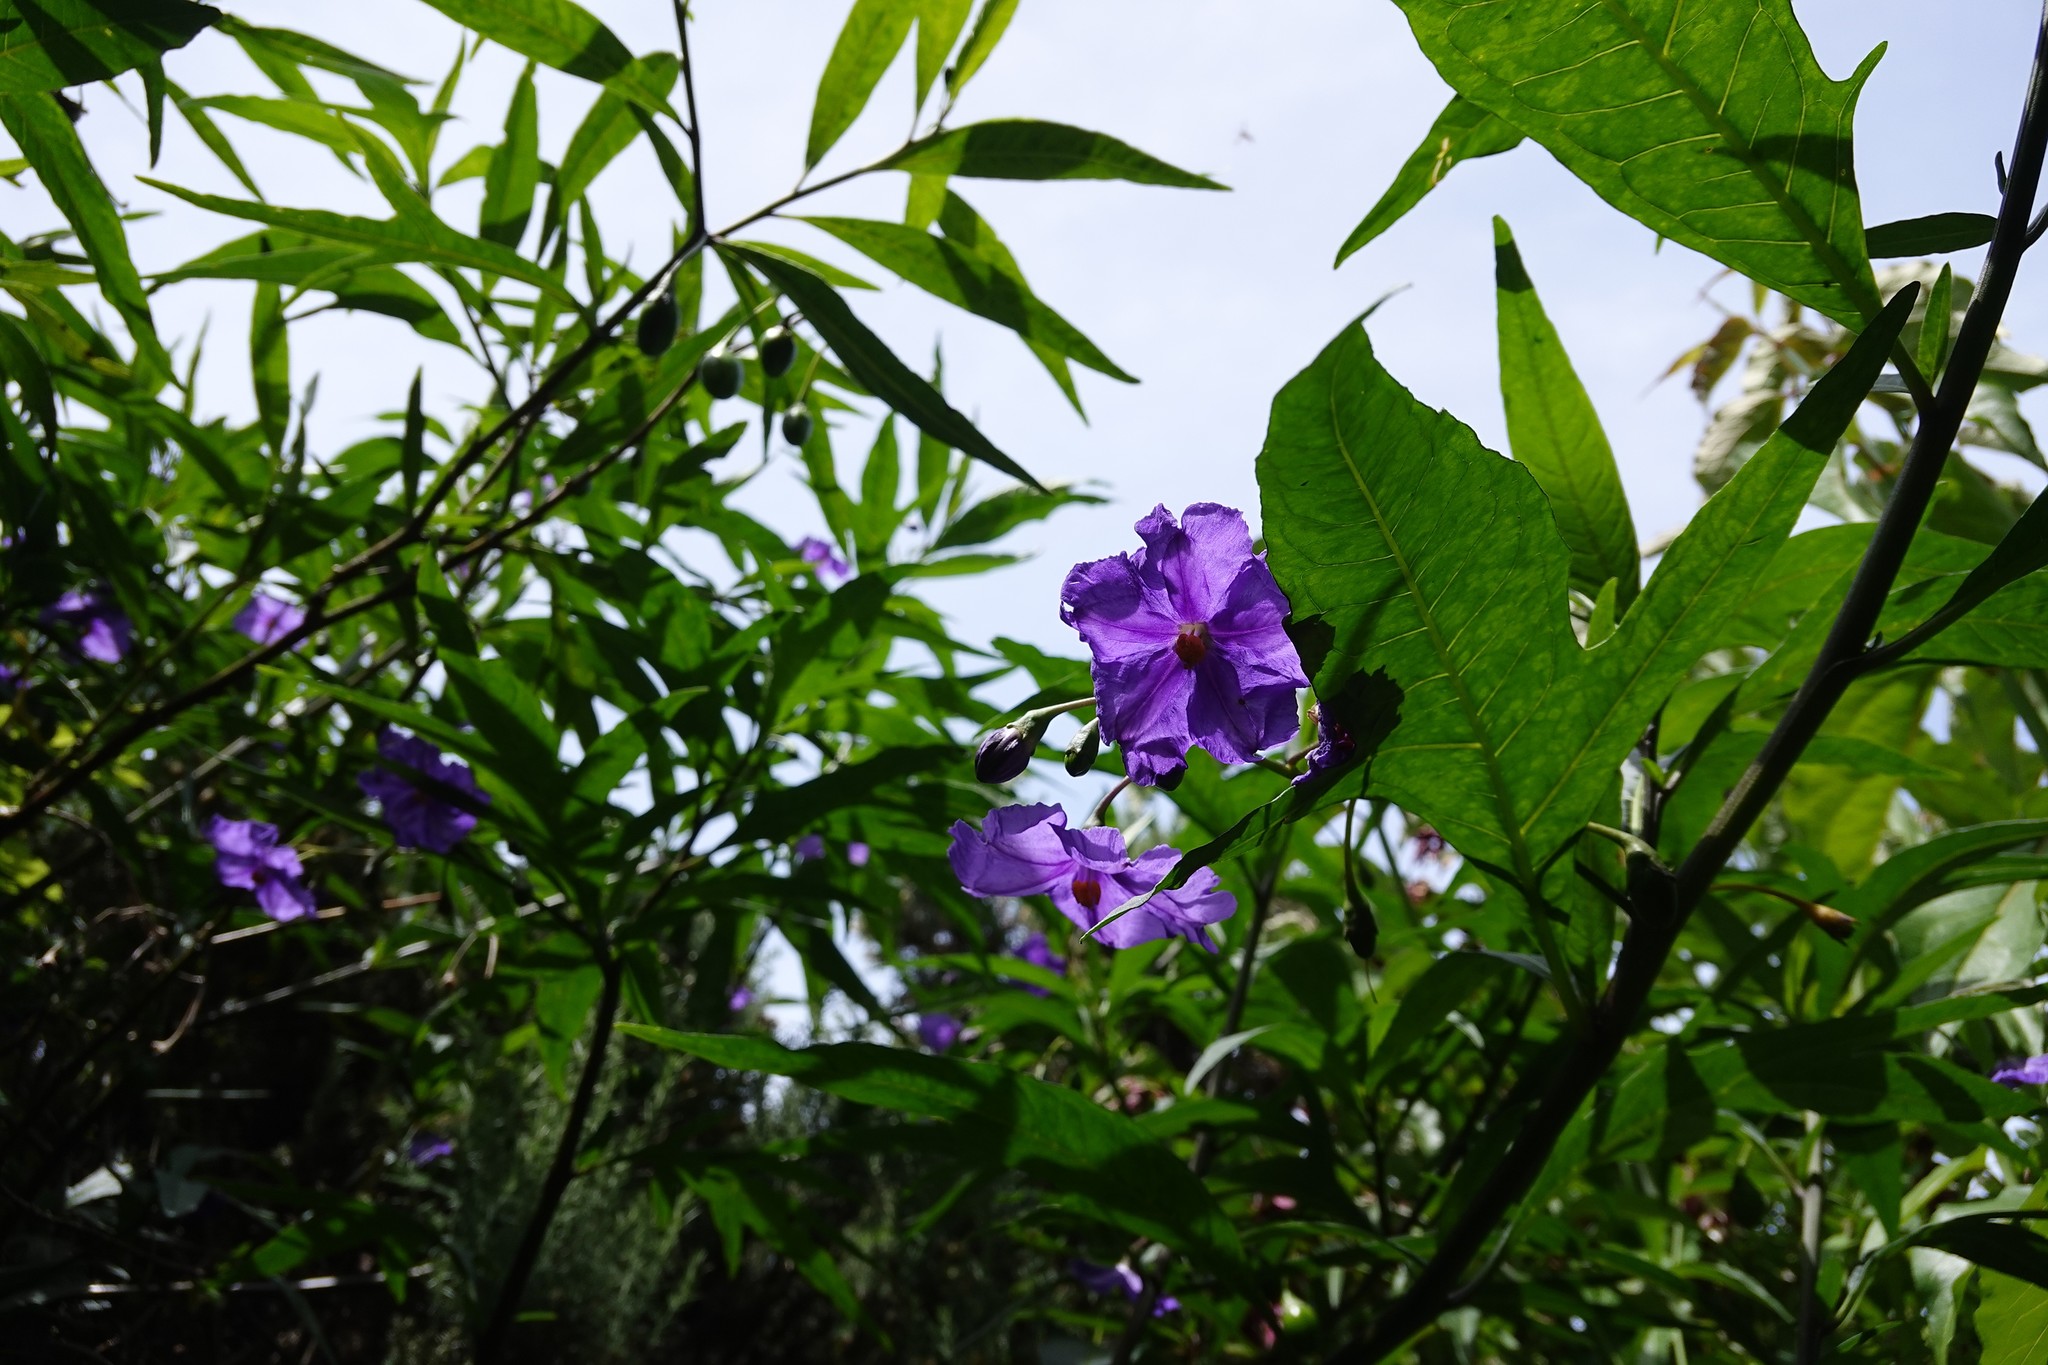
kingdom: Plantae
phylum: Tracheophyta
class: Magnoliopsida
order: Solanales
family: Solanaceae
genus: Solanum
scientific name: Solanum laciniatum
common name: Kangaroo-apple
